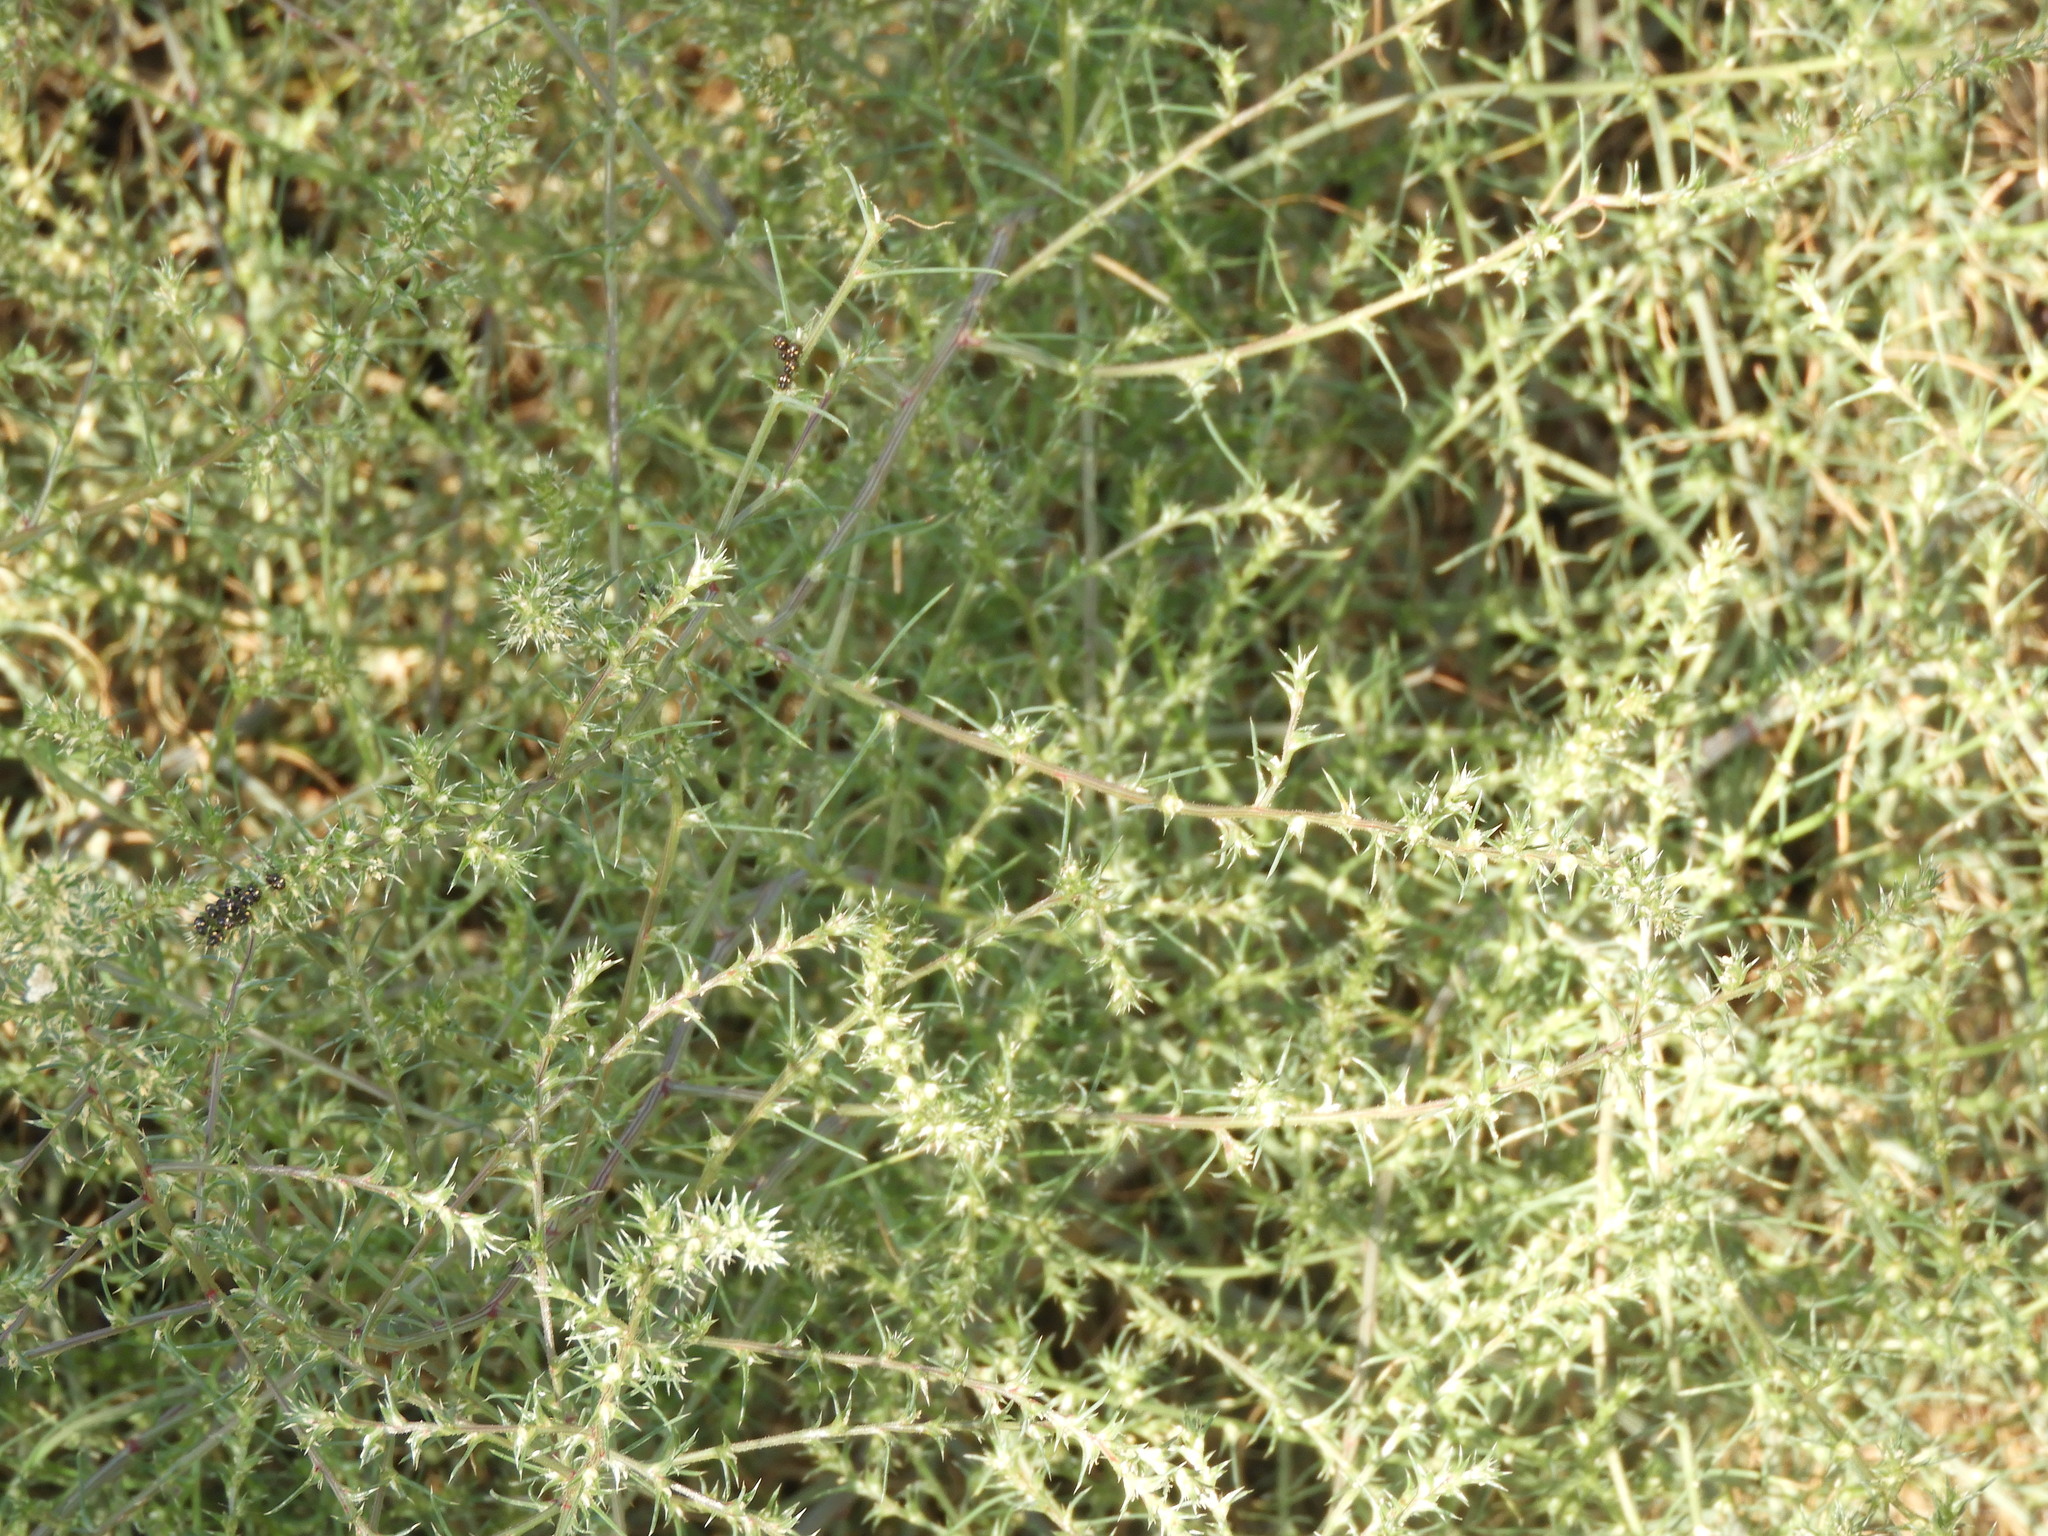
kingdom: Plantae
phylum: Tracheophyta
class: Magnoliopsida
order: Caryophyllales
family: Amaranthaceae
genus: Salsola
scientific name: Salsola tragus
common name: Prickly russian thistle
